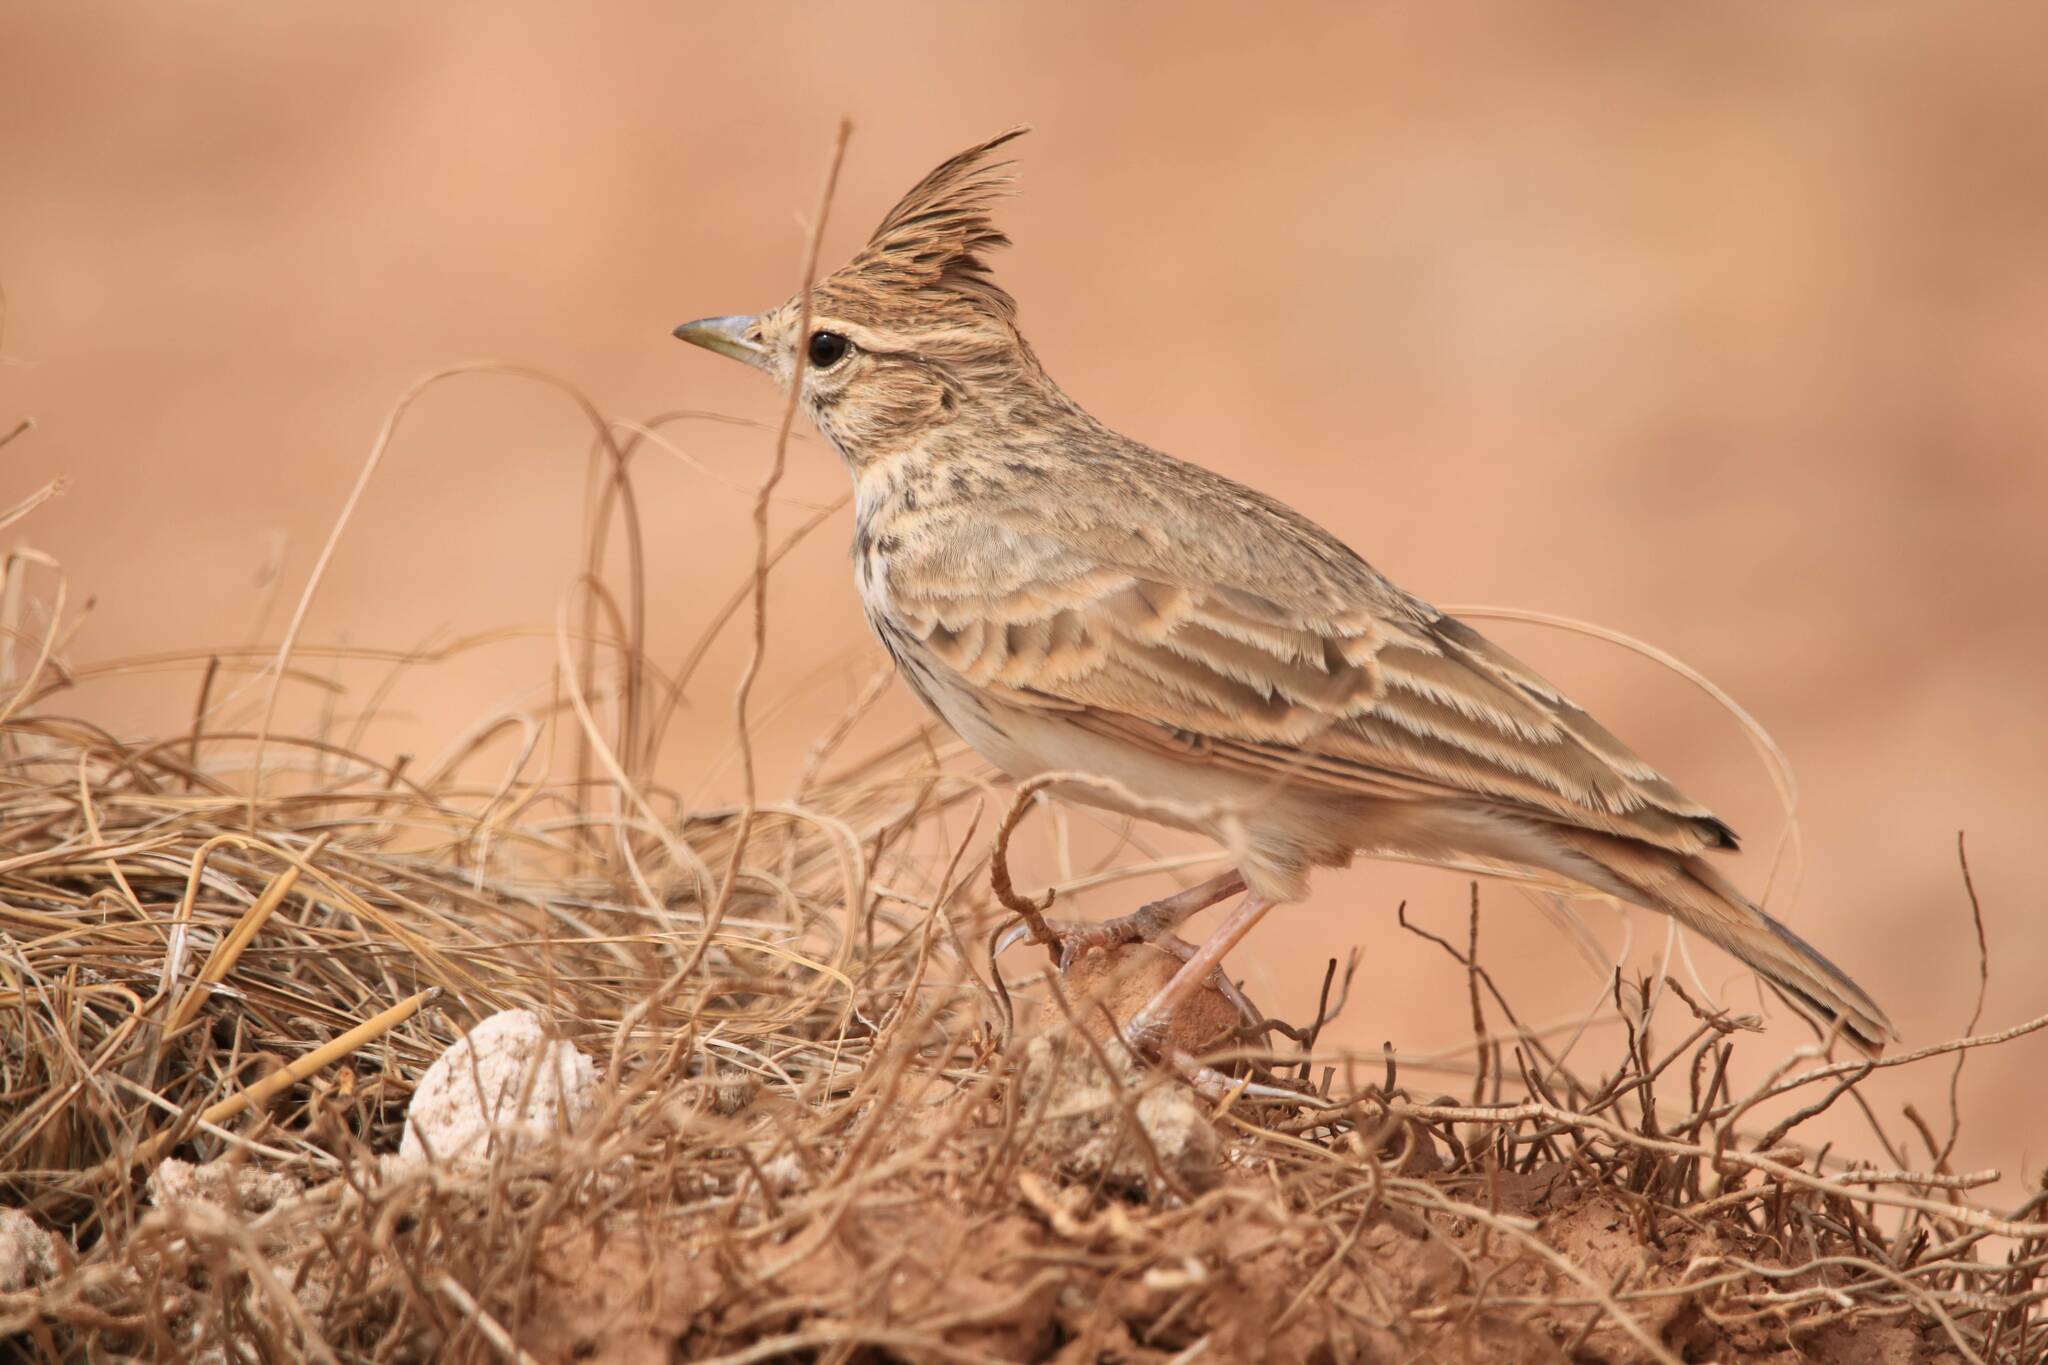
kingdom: Animalia
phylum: Chordata
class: Aves
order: Passeriformes
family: Alaudidae
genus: Galerida
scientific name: Galerida cristata
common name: Crested lark
